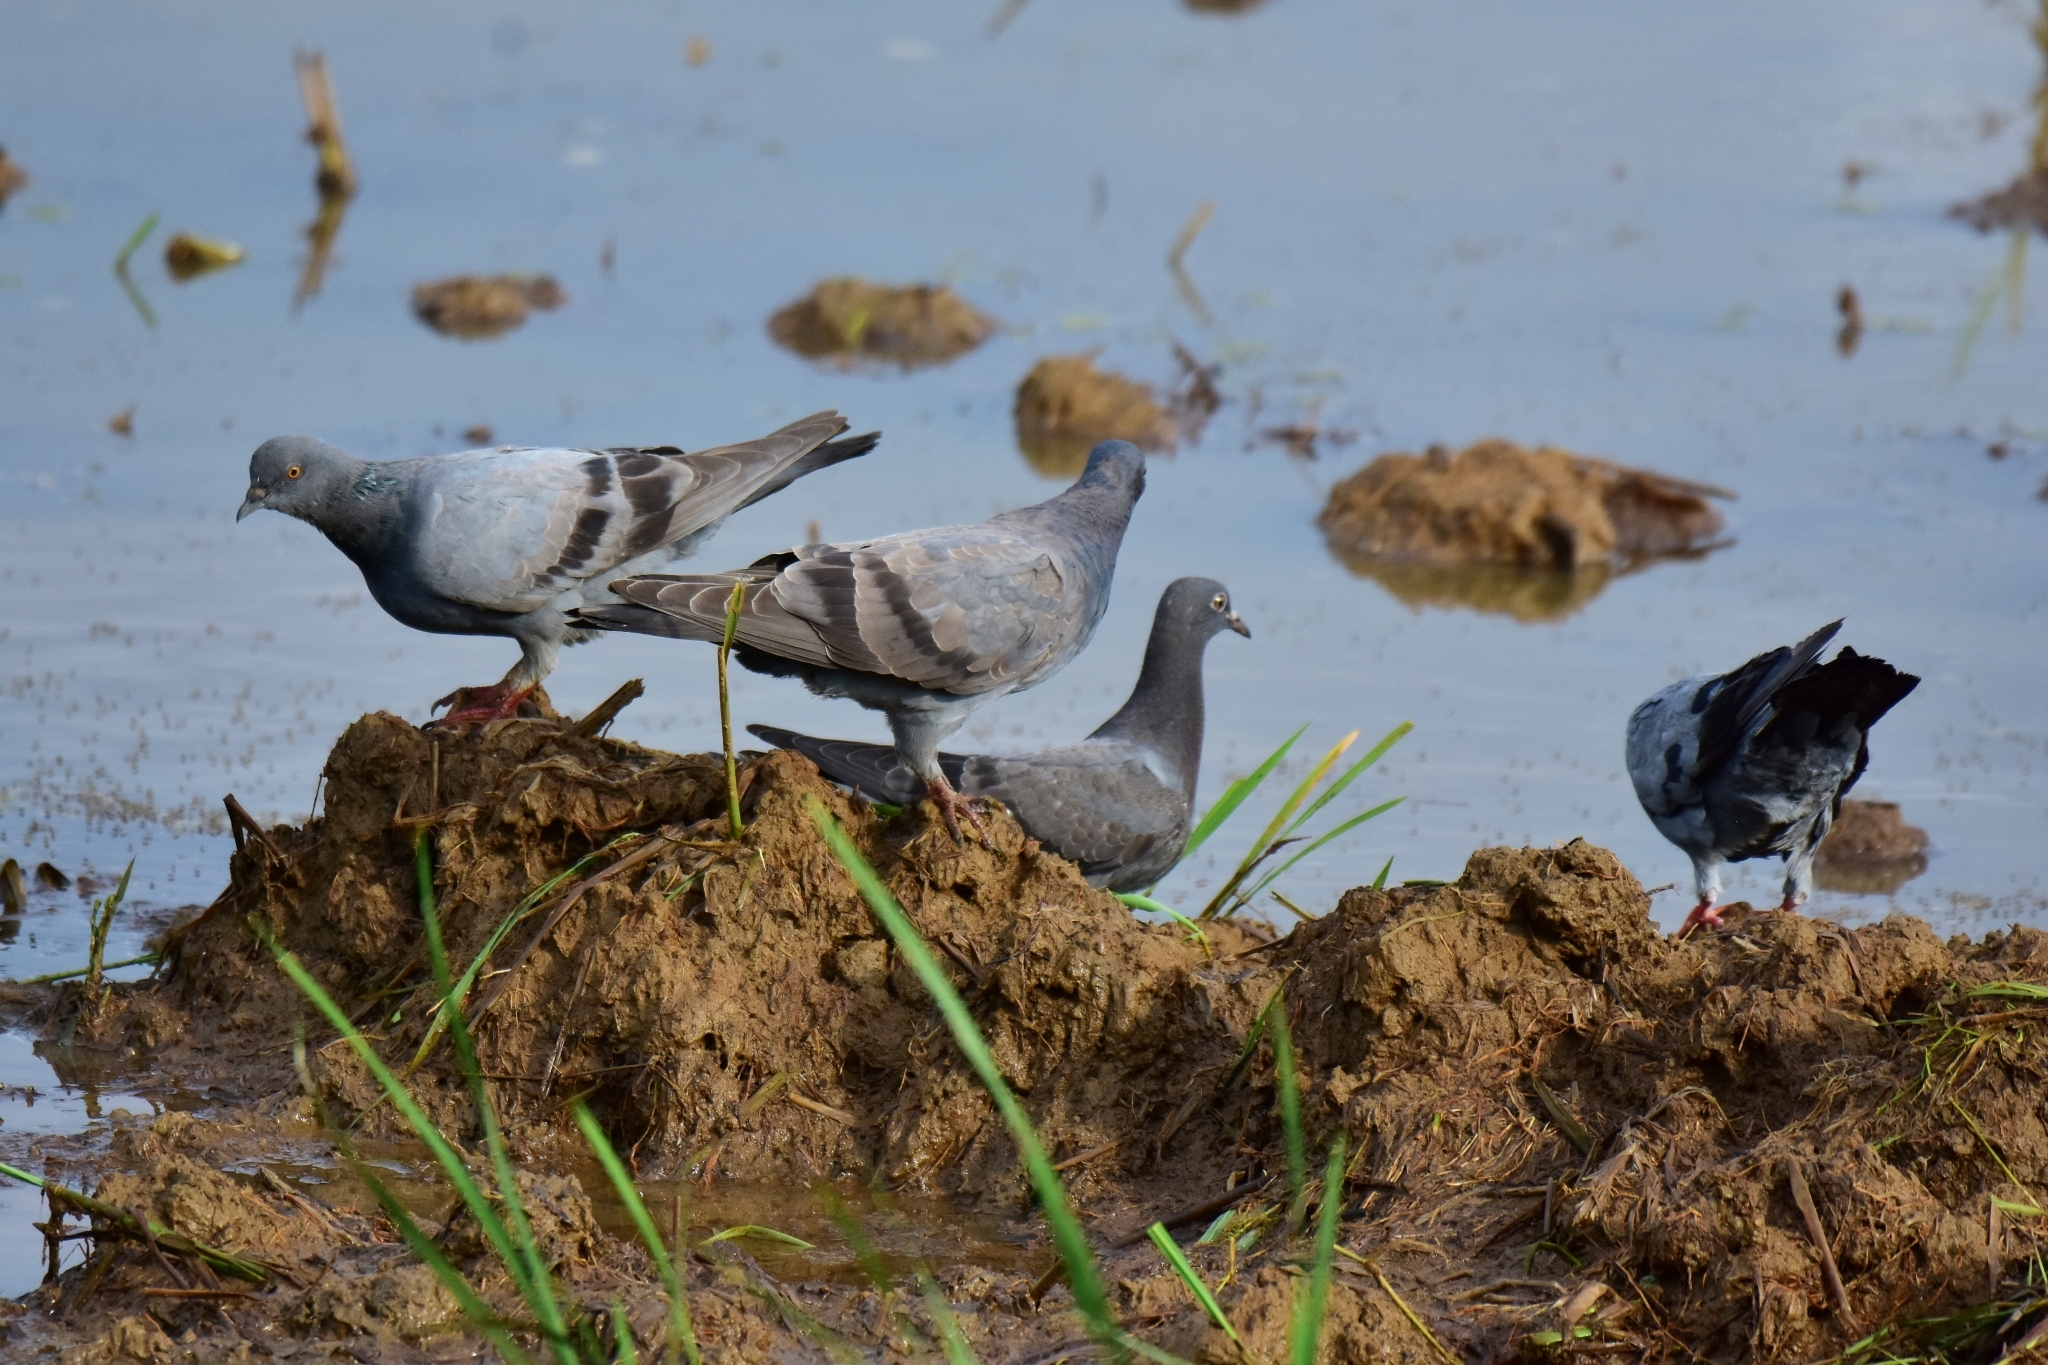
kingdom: Animalia
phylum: Chordata
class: Aves
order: Columbiformes
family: Columbidae
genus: Columba
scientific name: Columba livia
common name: Rock pigeon
